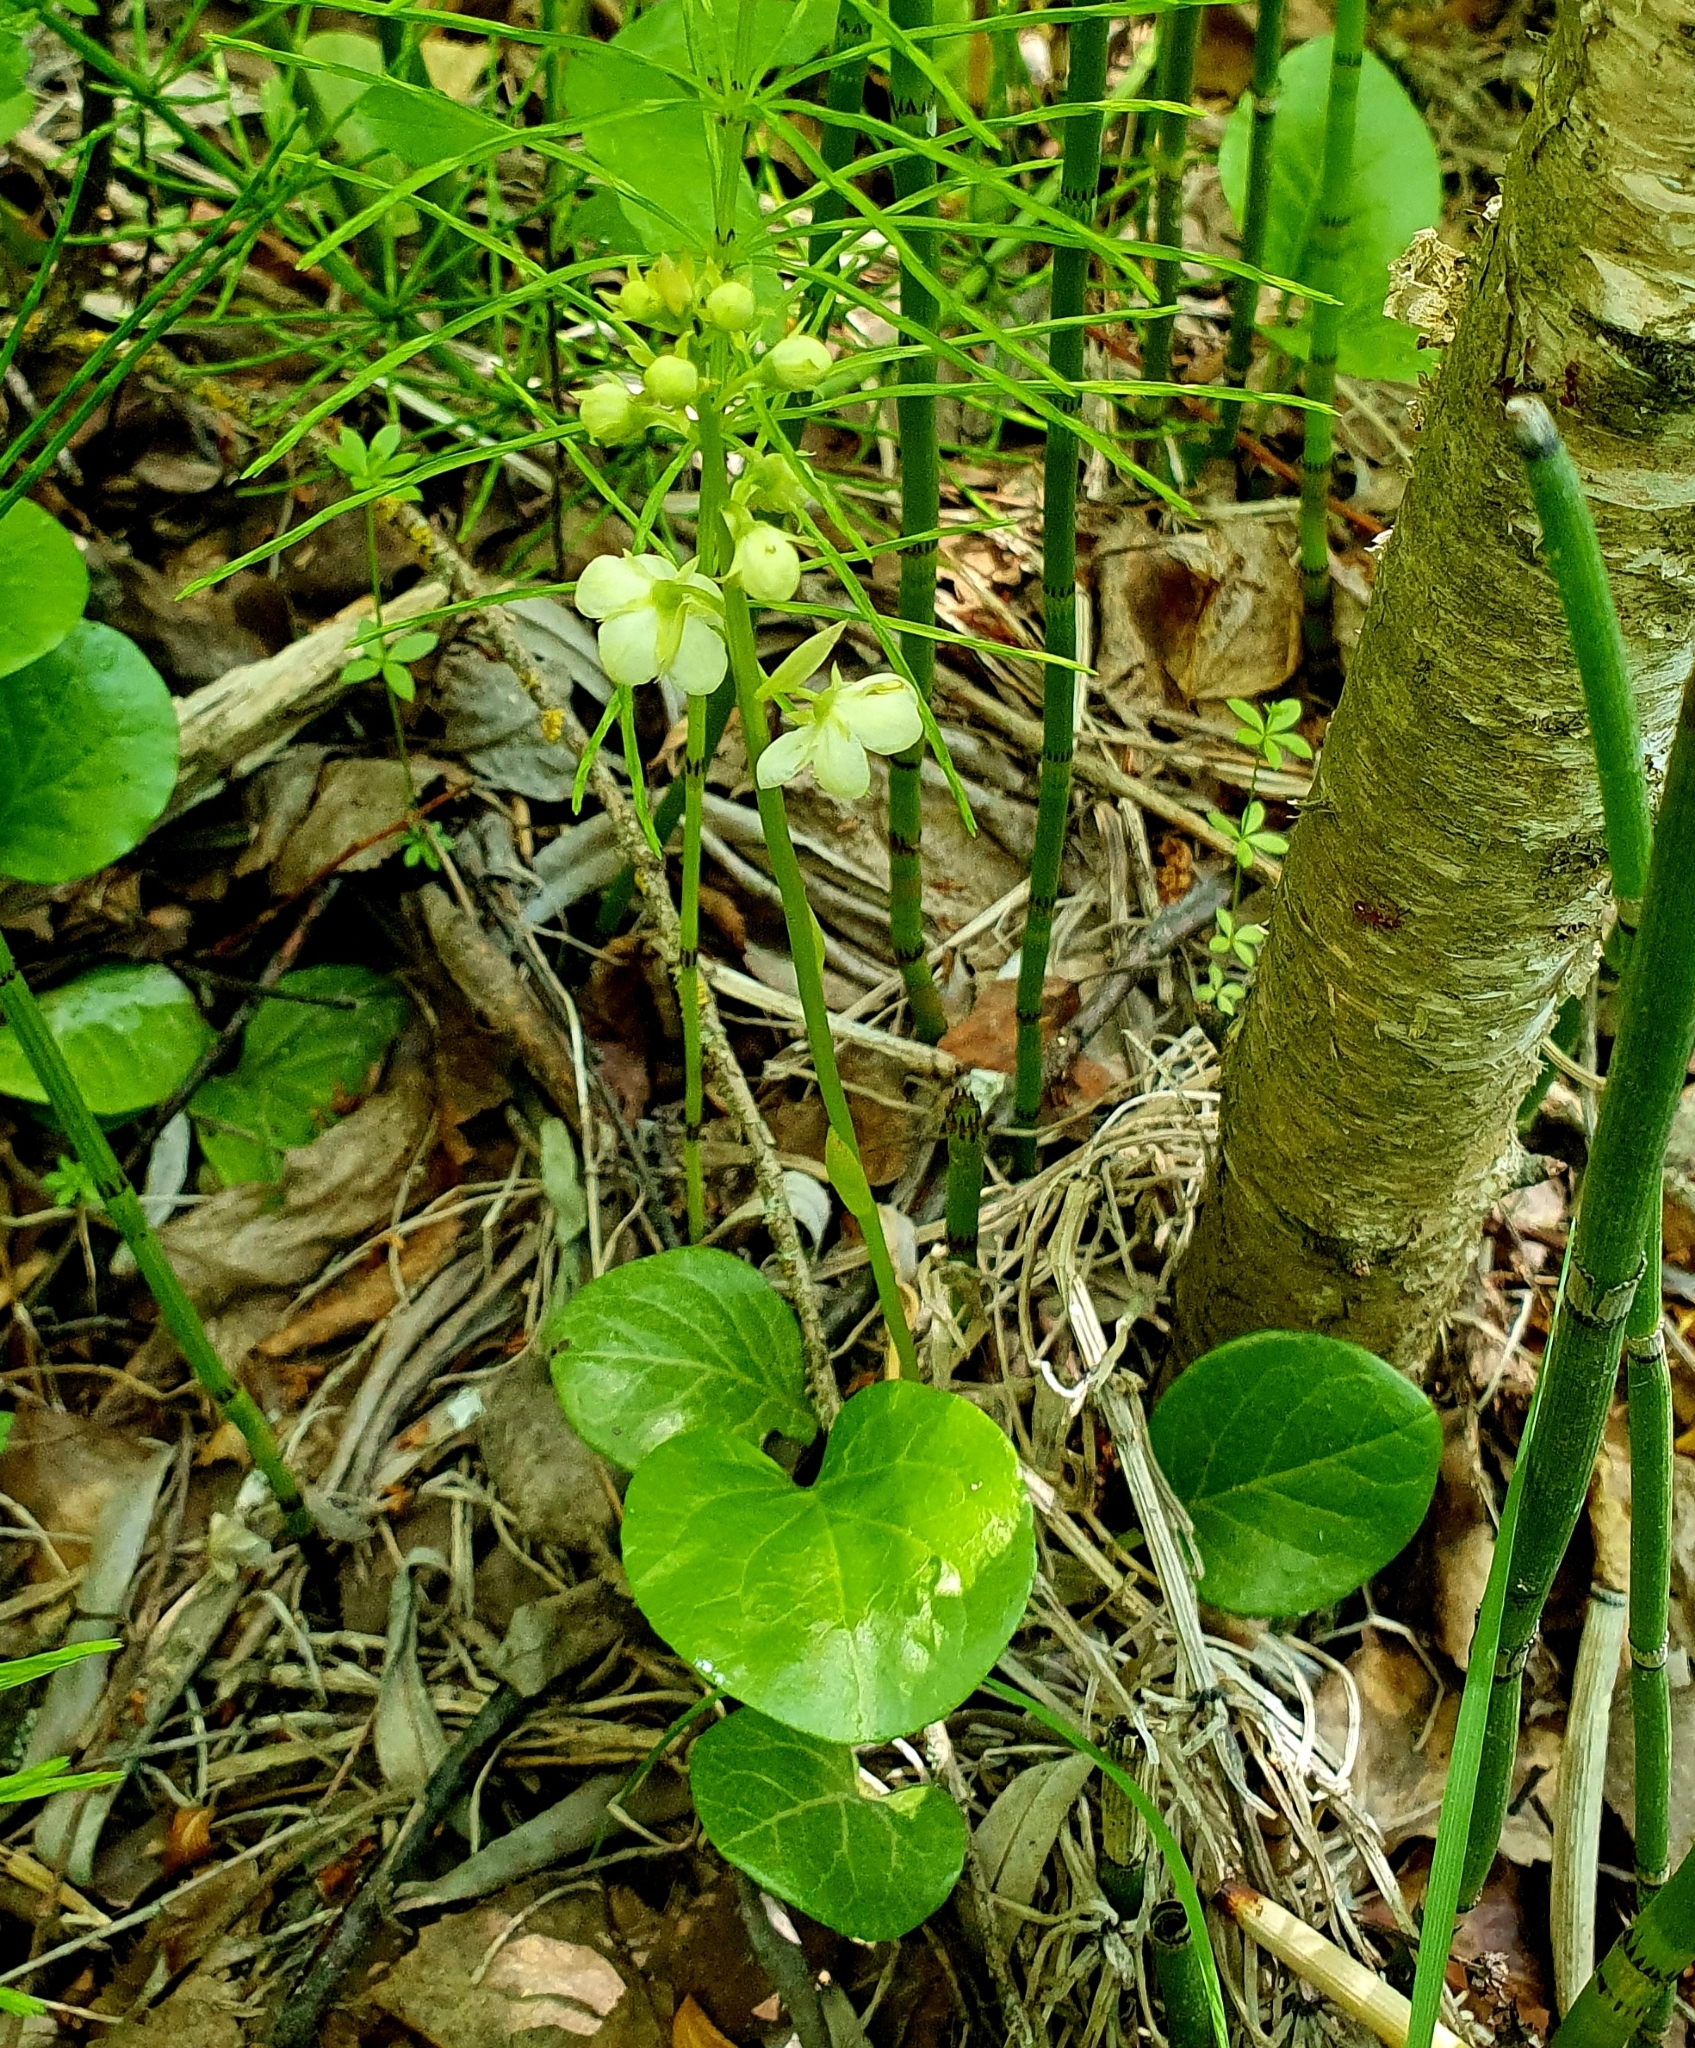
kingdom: Plantae
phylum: Tracheophyta
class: Magnoliopsida
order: Ericales
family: Ericaceae
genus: Pyrola
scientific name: Pyrola rotundifolia
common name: Round-leaved wintergreen
